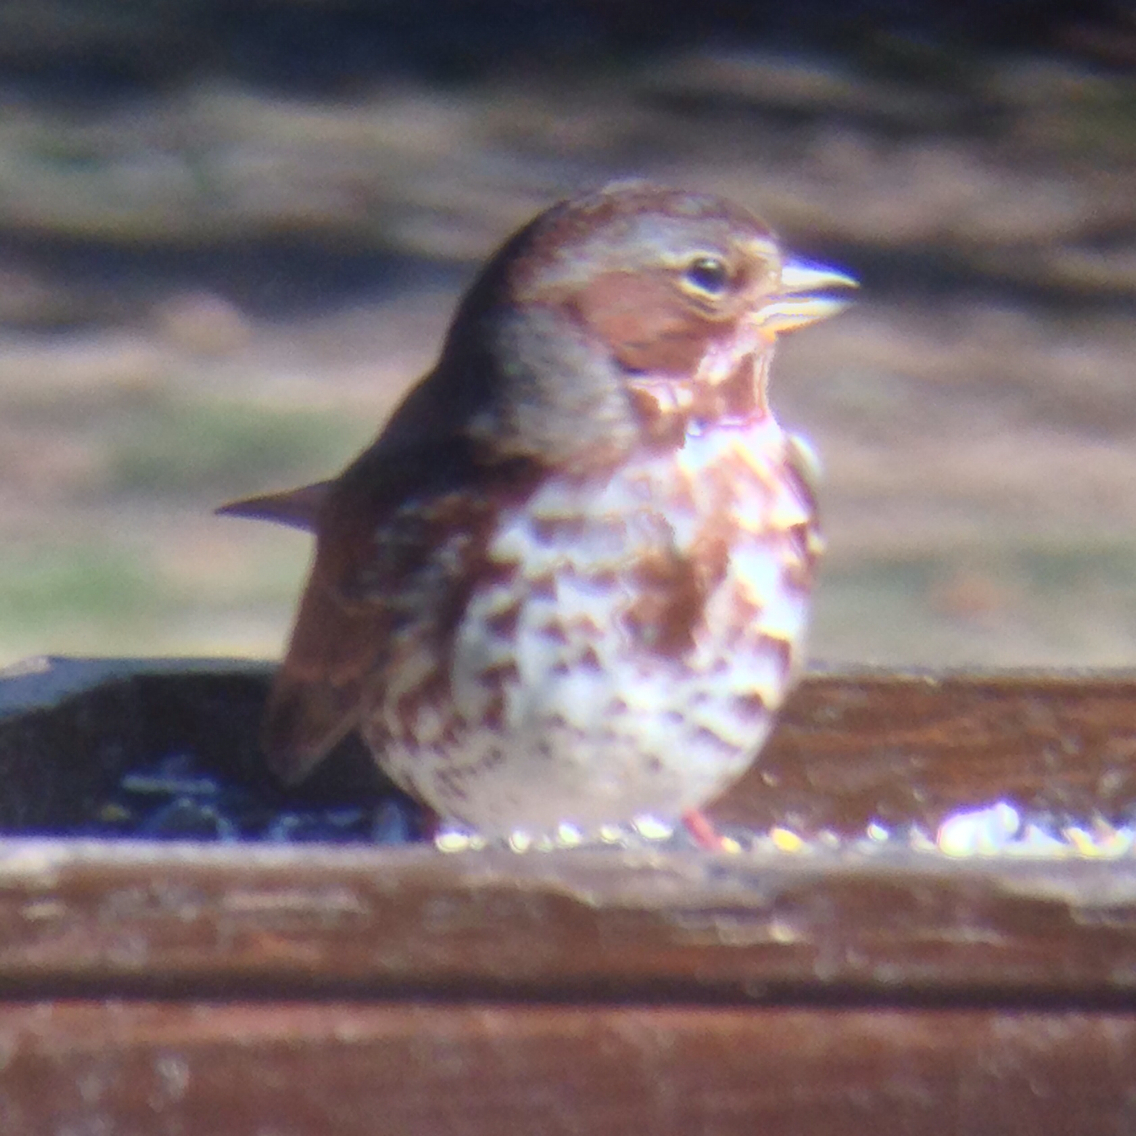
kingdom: Animalia
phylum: Chordata
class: Aves
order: Passeriformes
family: Passerellidae
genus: Passerella
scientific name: Passerella iliaca
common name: Fox sparrow
